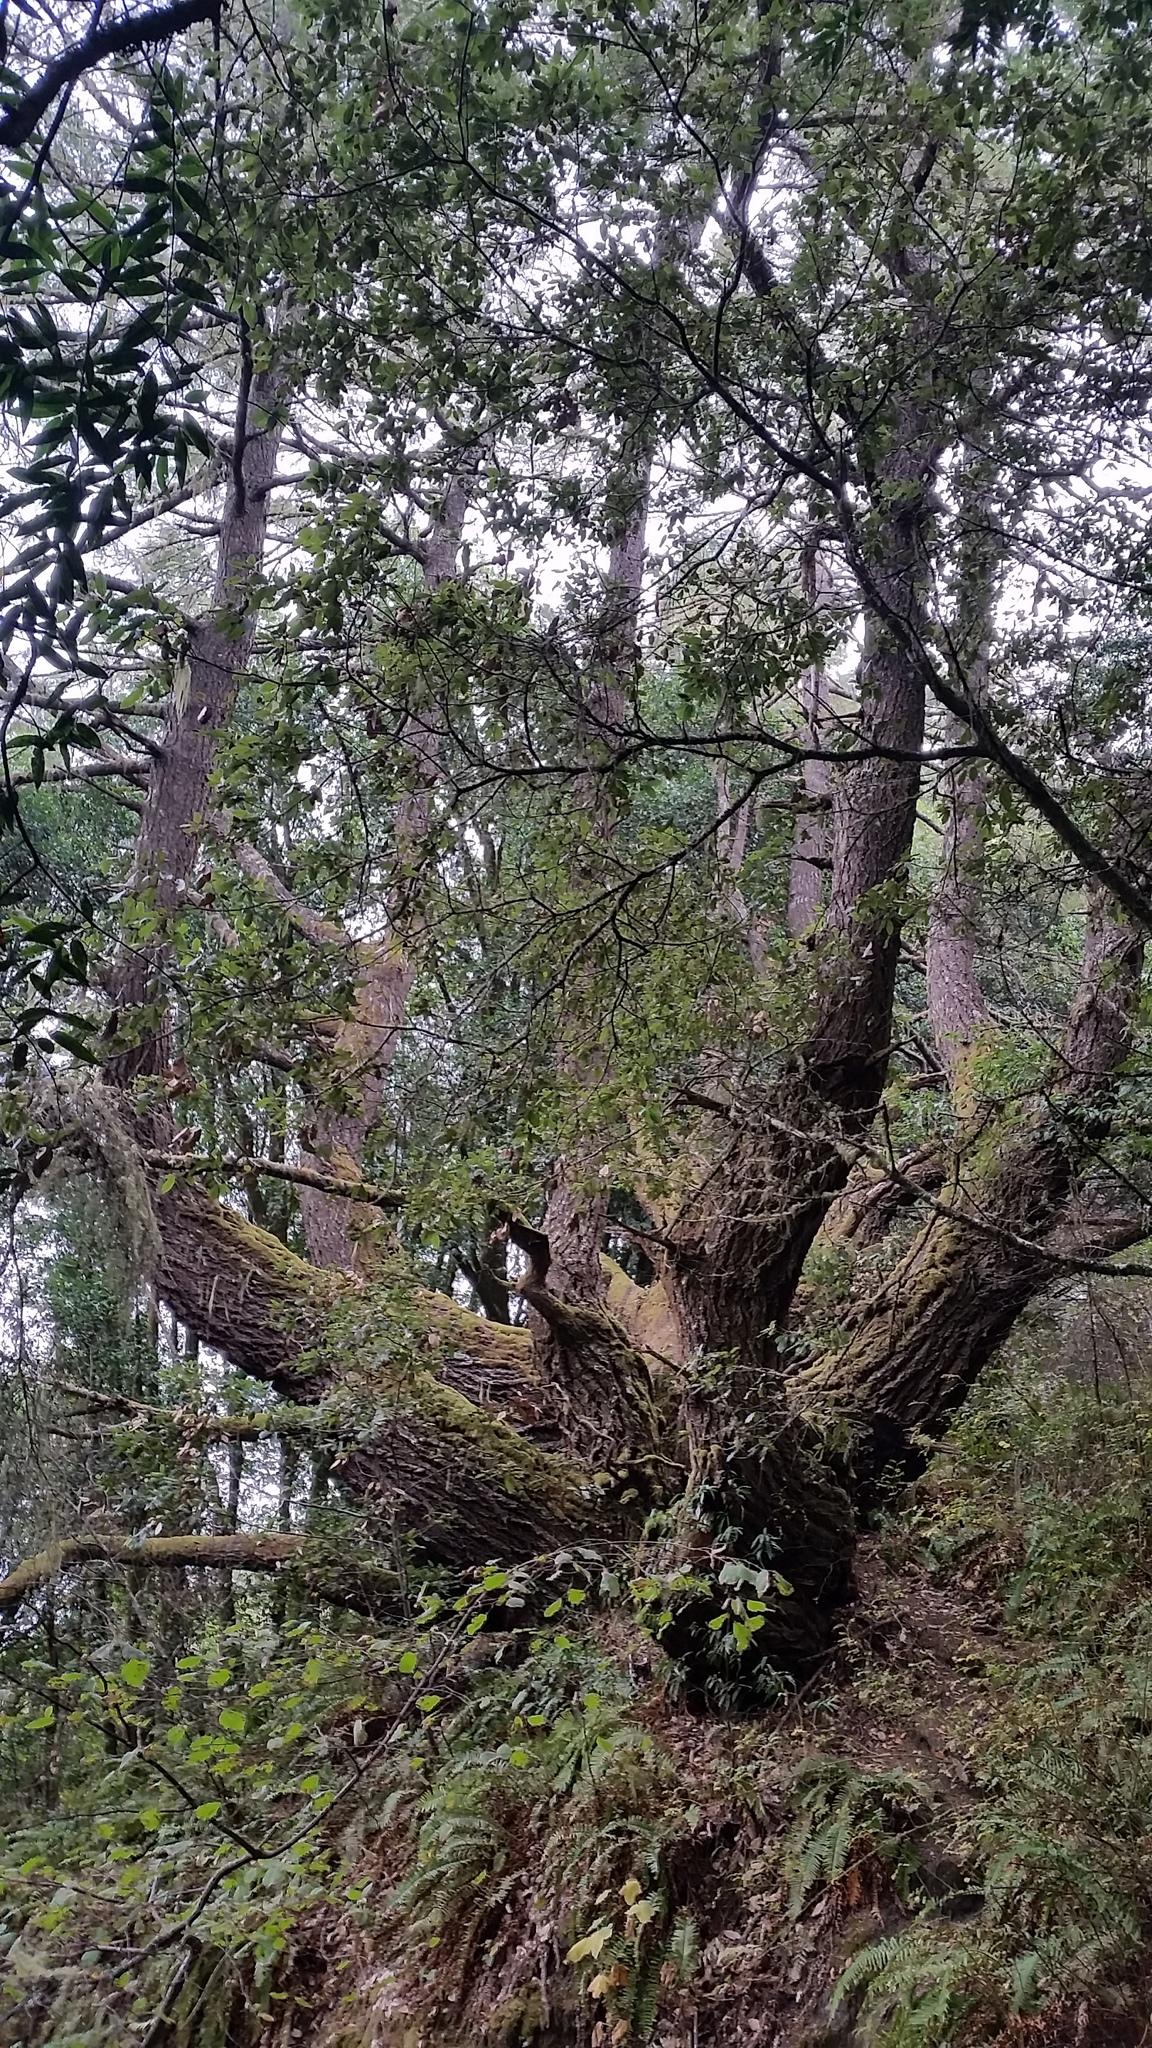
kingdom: Plantae
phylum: Tracheophyta
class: Pinopsida
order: Pinales
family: Pinaceae
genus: Pseudotsuga
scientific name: Pseudotsuga menziesii
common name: Douglas fir
